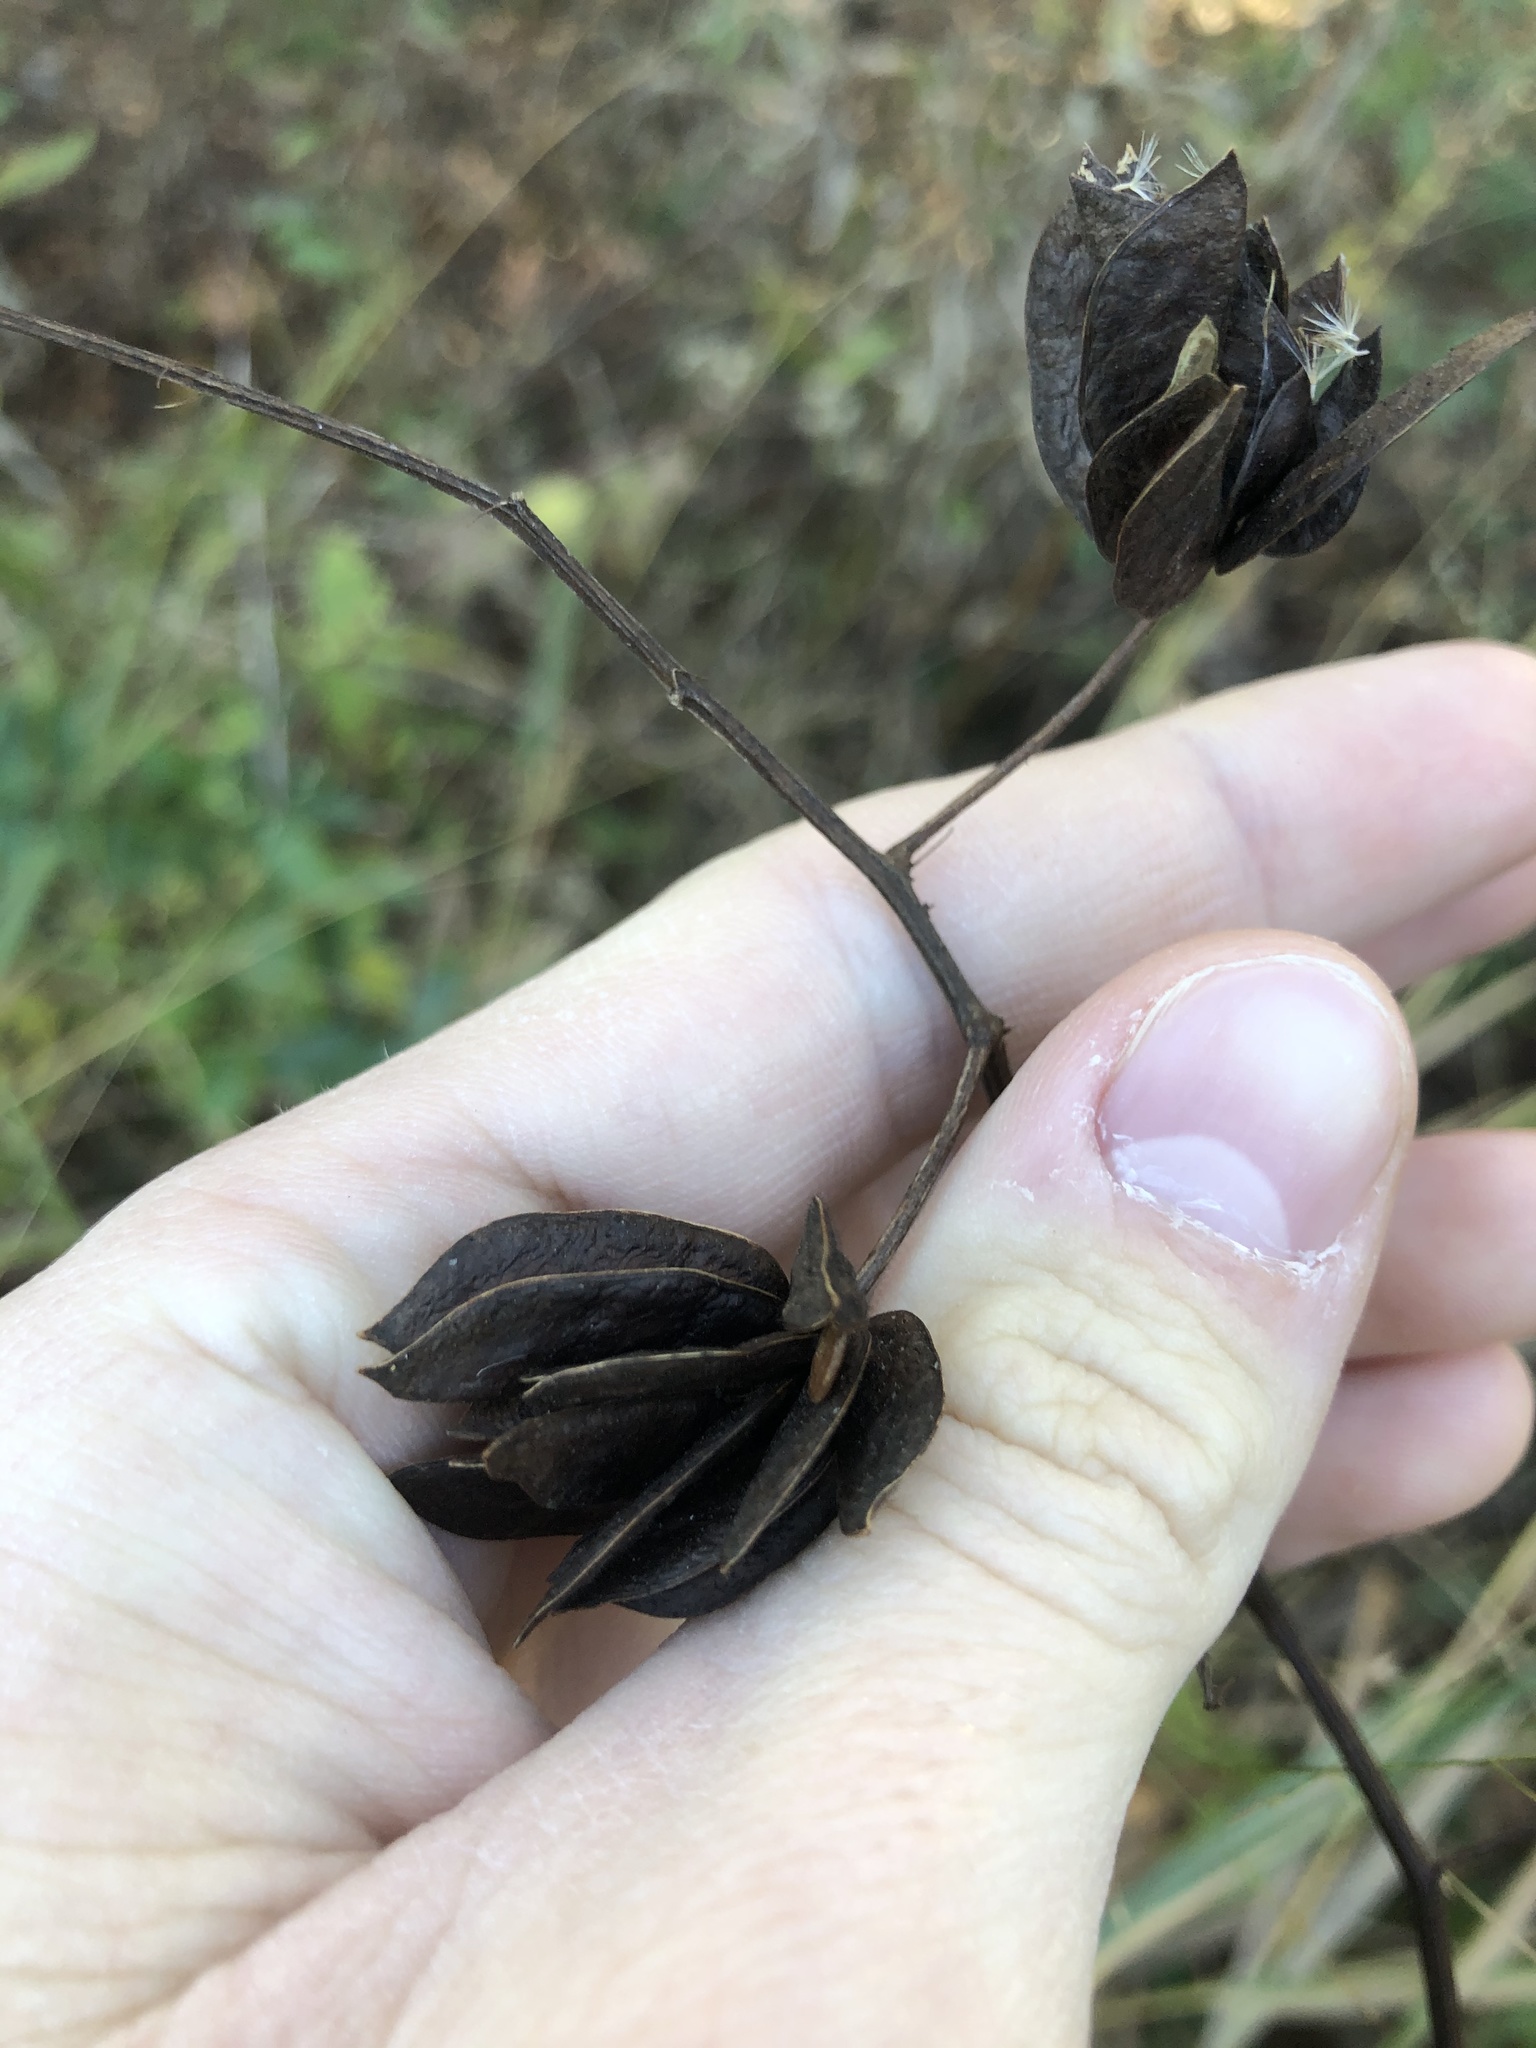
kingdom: Plantae
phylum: Tracheophyta
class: Magnoliopsida
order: Fabales
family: Fabaceae
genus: Desmanthus
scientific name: Desmanthus illinoensis
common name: Illinois bundle-flower
